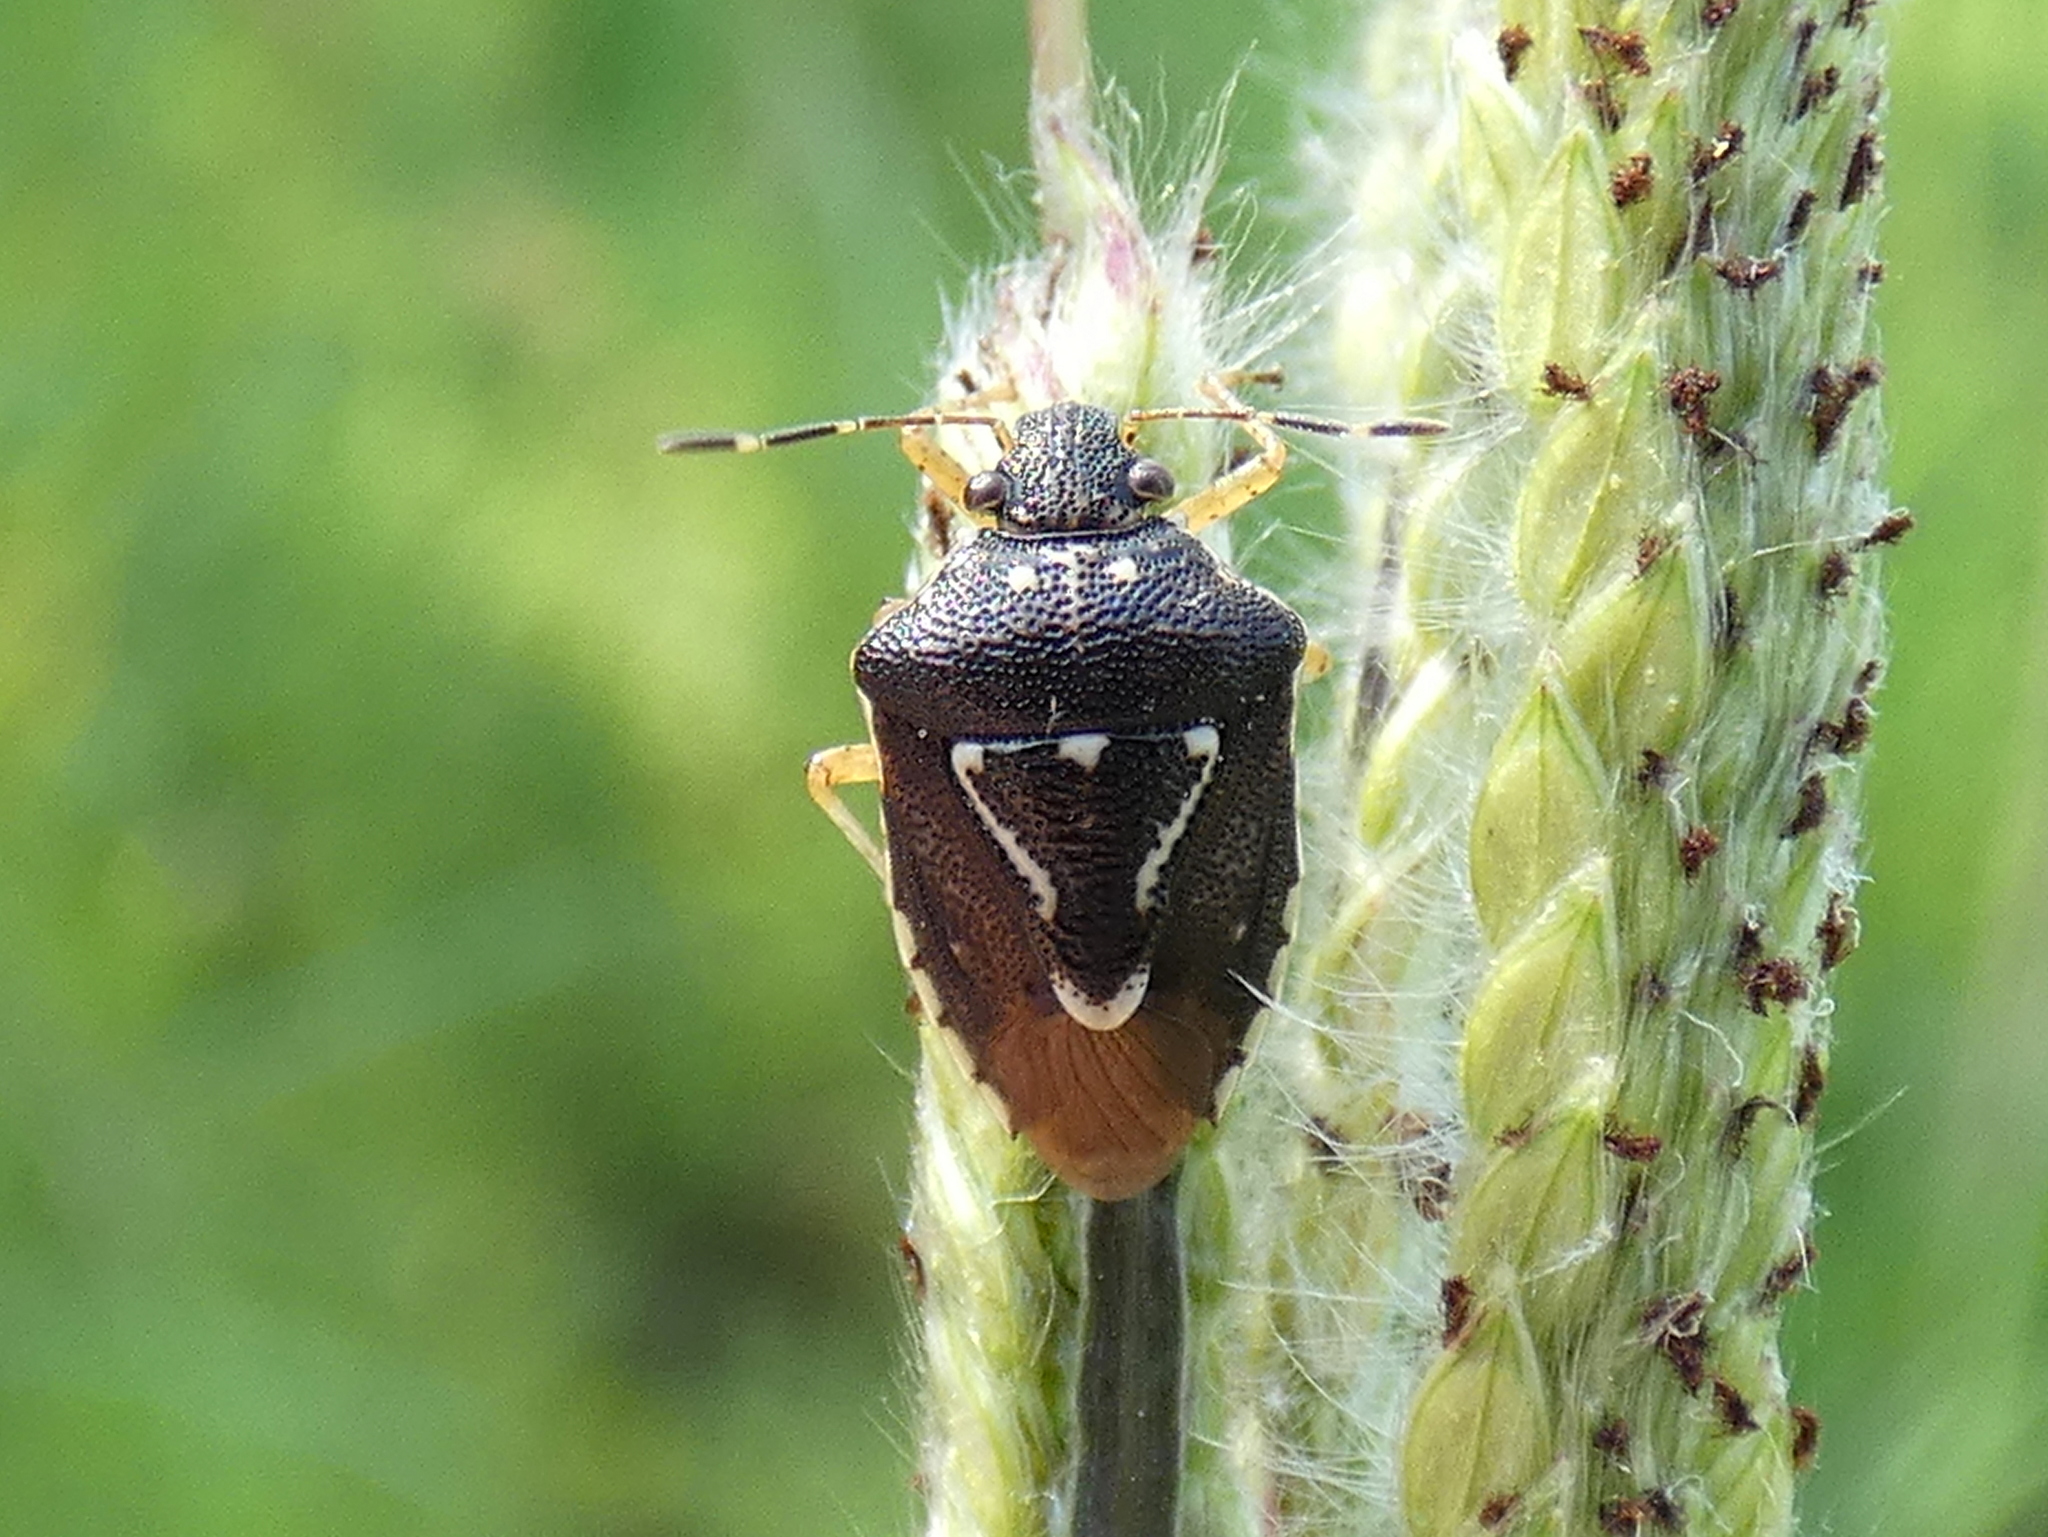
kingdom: Animalia
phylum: Arthropoda
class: Insecta
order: Hemiptera
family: Pentatomidae
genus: Mormidea
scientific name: Mormidea pama
